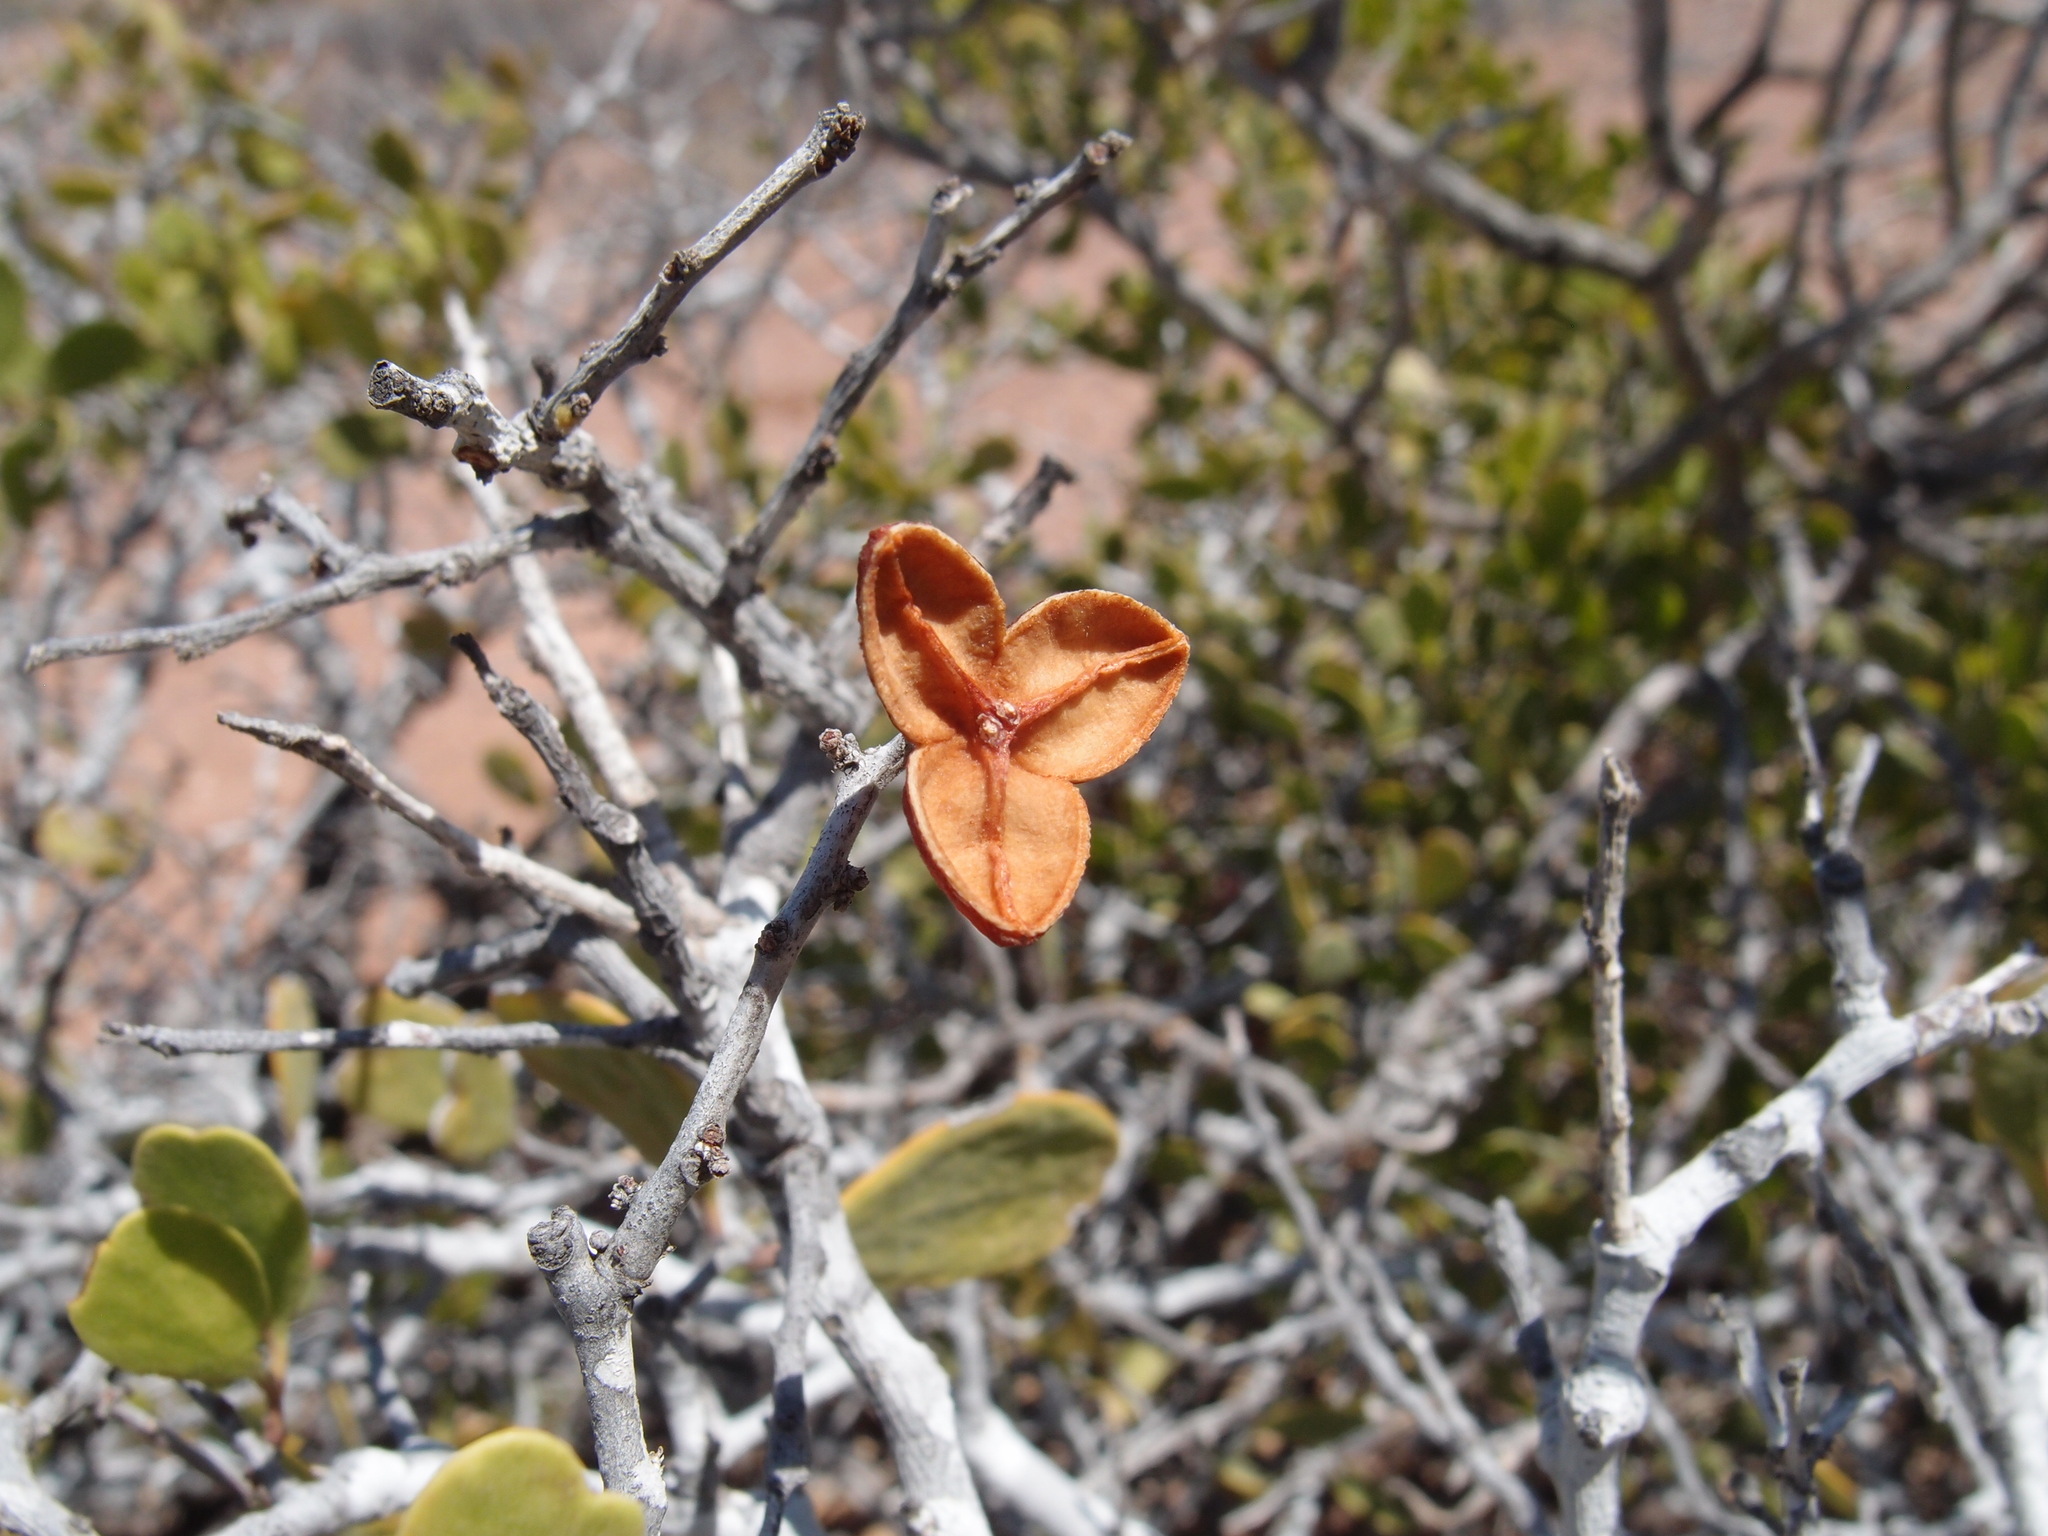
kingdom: Plantae
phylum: Tracheophyta
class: Magnoliopsida
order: Celastrales
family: Celastraceae
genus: Tricerma
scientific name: Tricerma phyllanthoides
